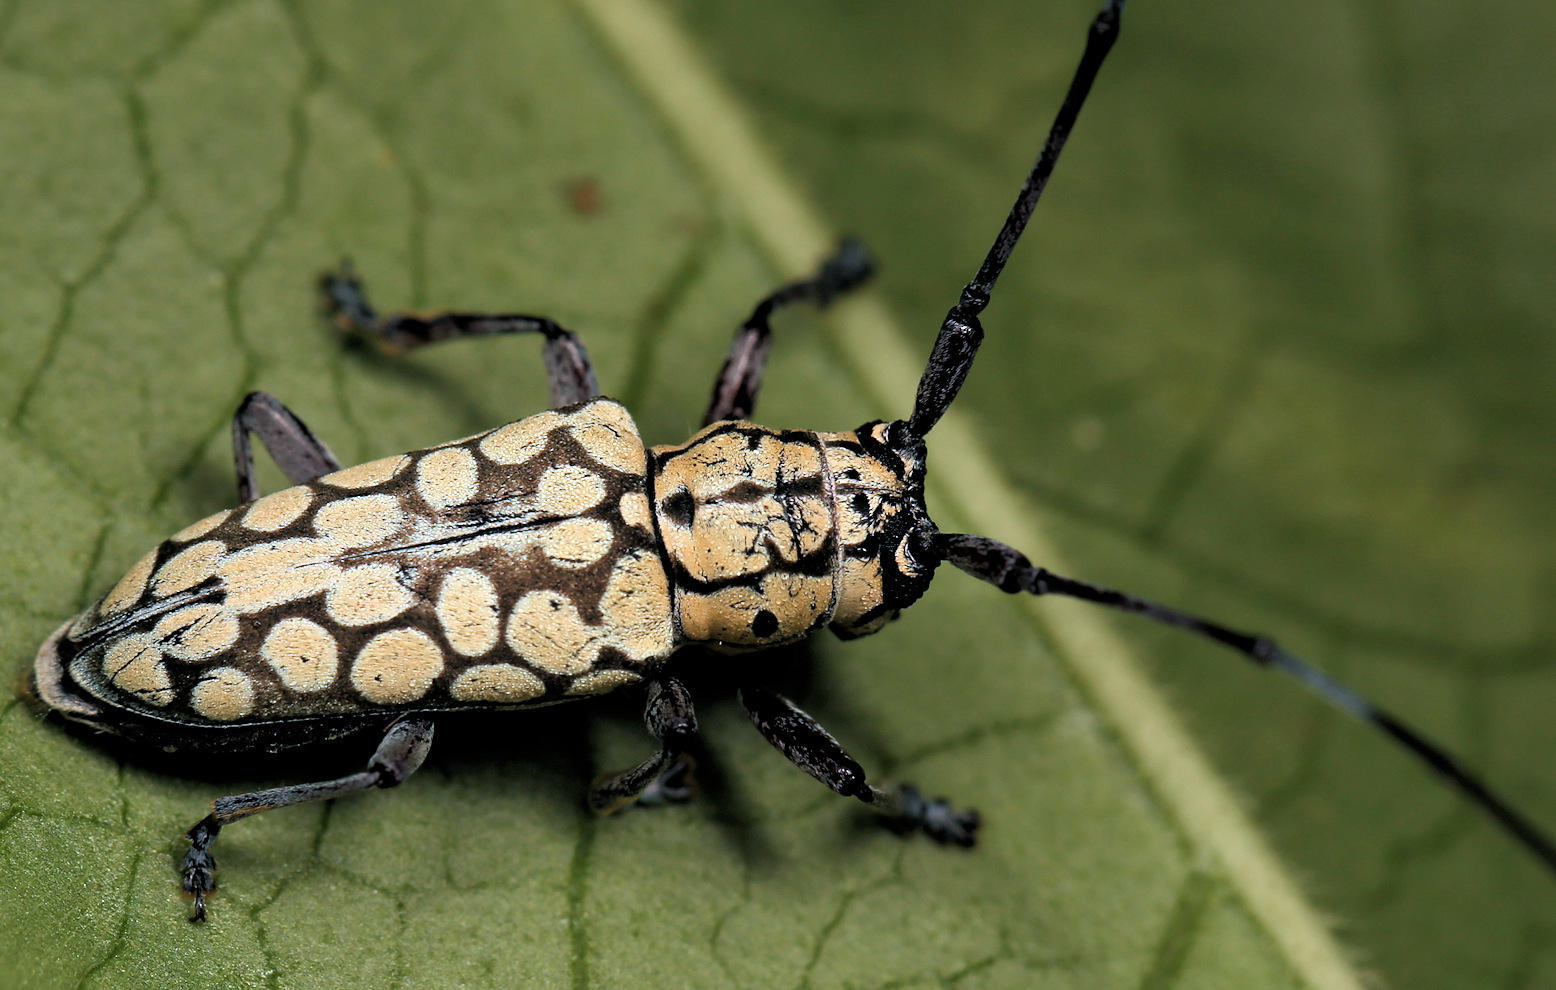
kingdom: Animalia
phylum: Arthropoda
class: Insecta
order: Coleoptera
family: Cerambycidae
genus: Prosopocera
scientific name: Prosopocera sofala
